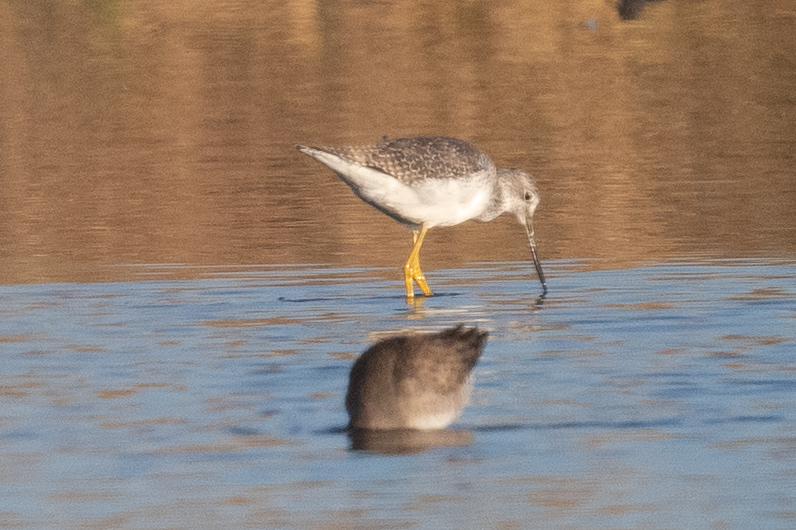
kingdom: Animalia
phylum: Chordata
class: Aves
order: Charadriiformes
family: Scolopacidae
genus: Tringa
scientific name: Tringa melanoleuca
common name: Greater yellowlegs
